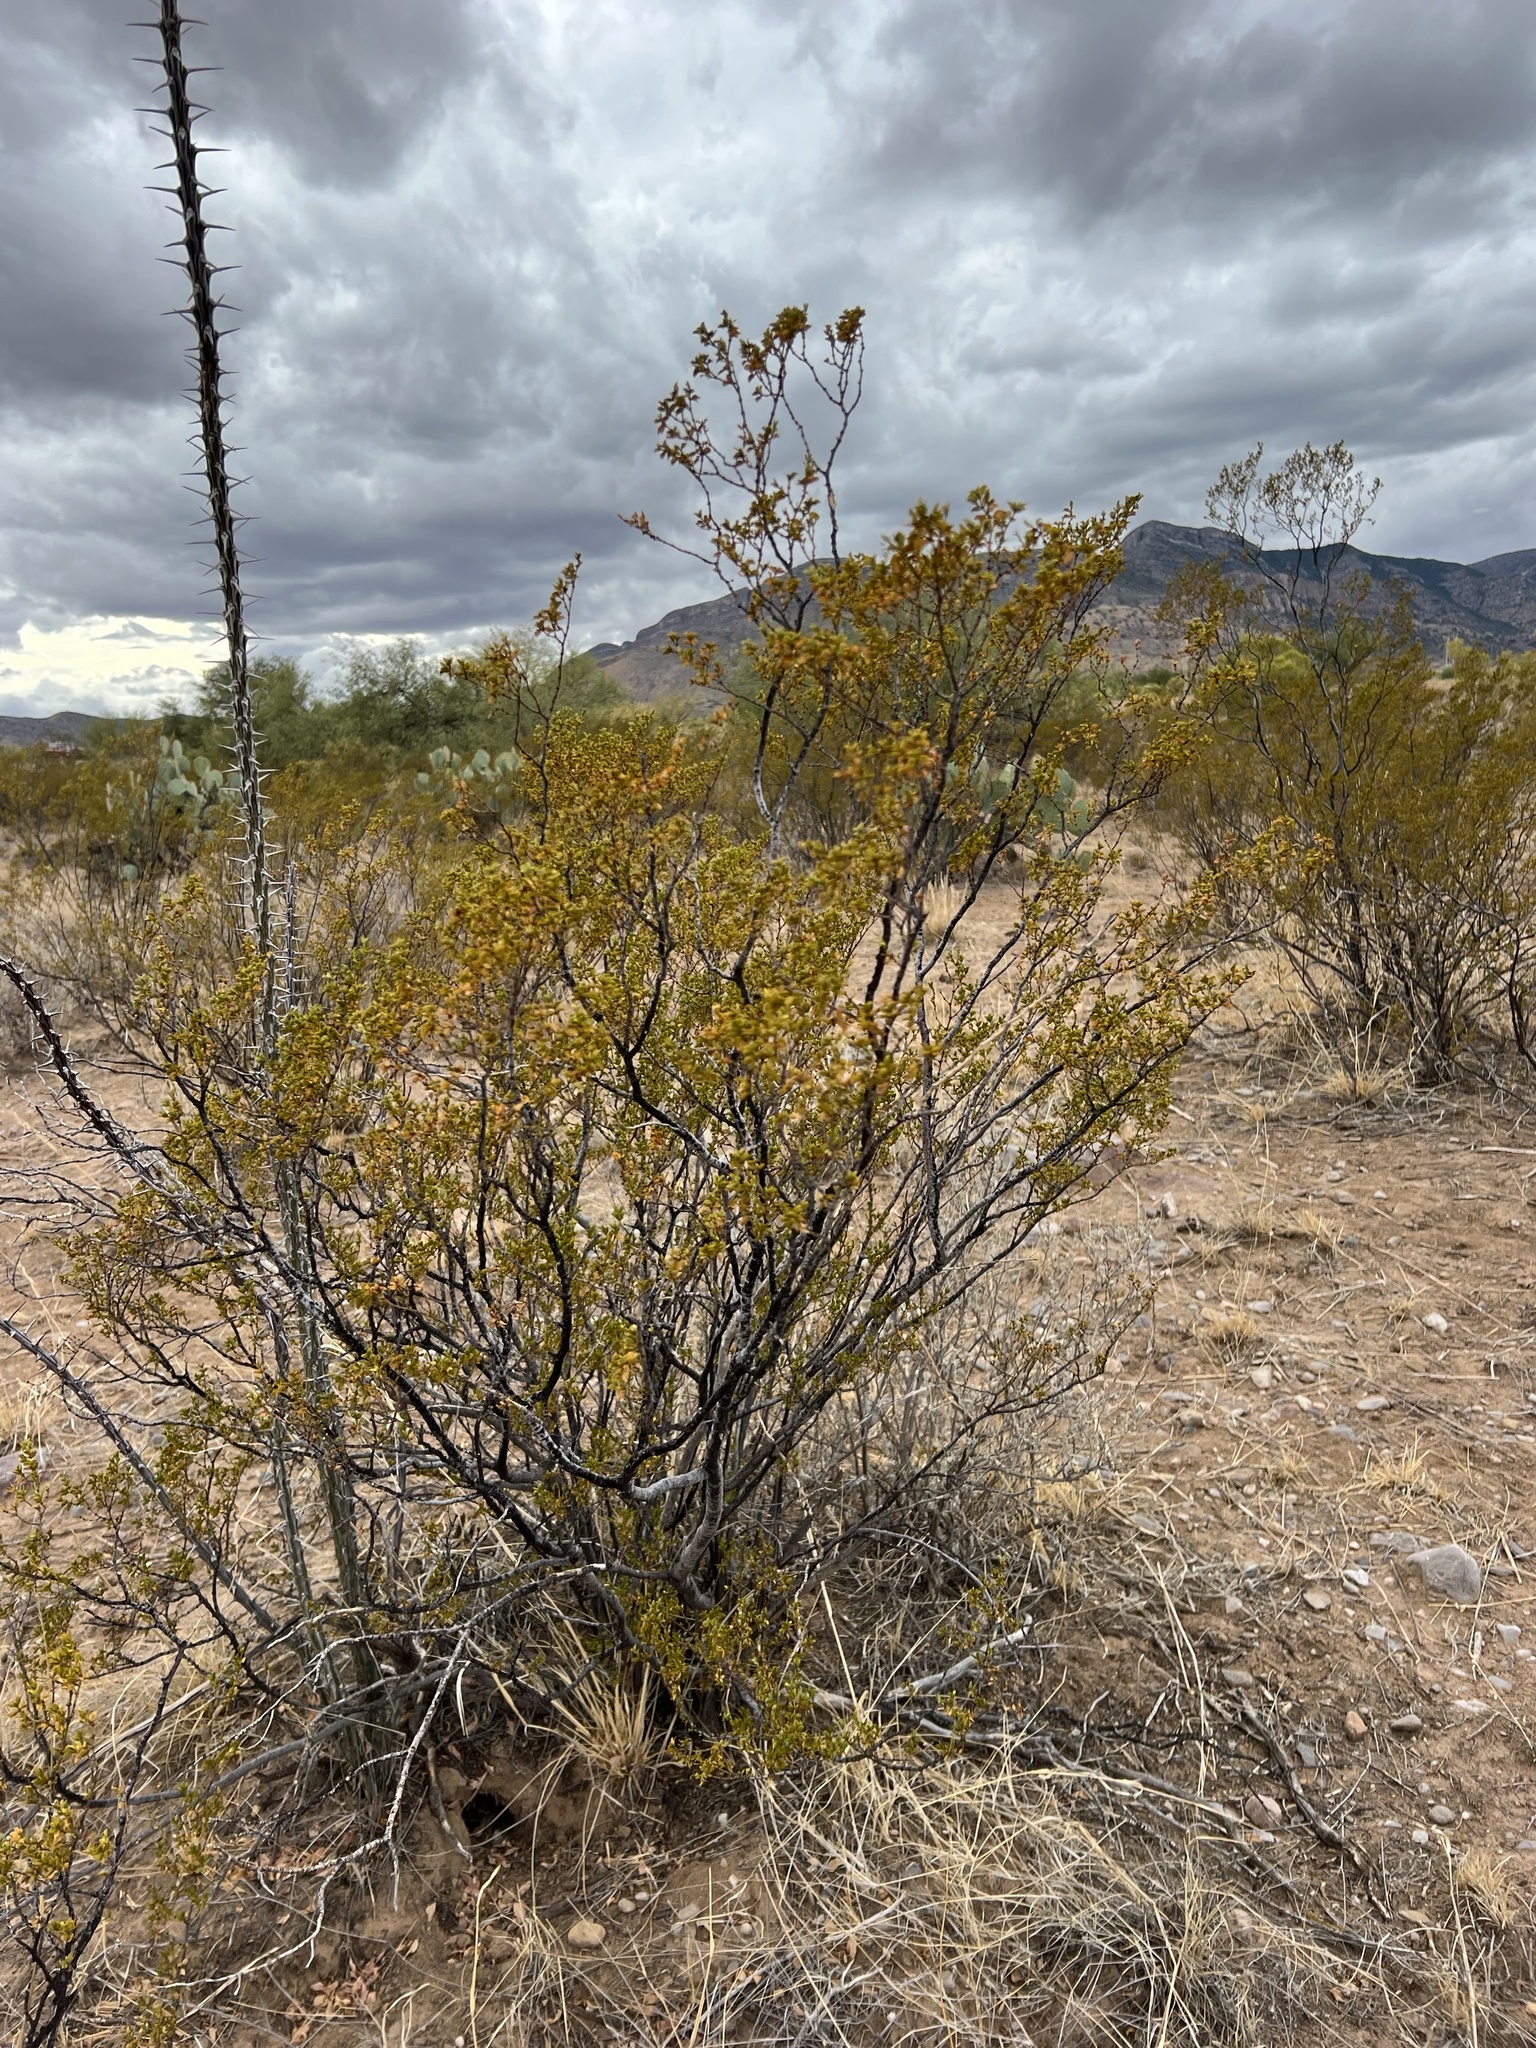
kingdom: Plantae
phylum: Tracheophyta
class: Magnoliopsida
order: Zygophyllales
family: Zygophyllaceae
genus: Larrea
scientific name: Larrea tridentata
